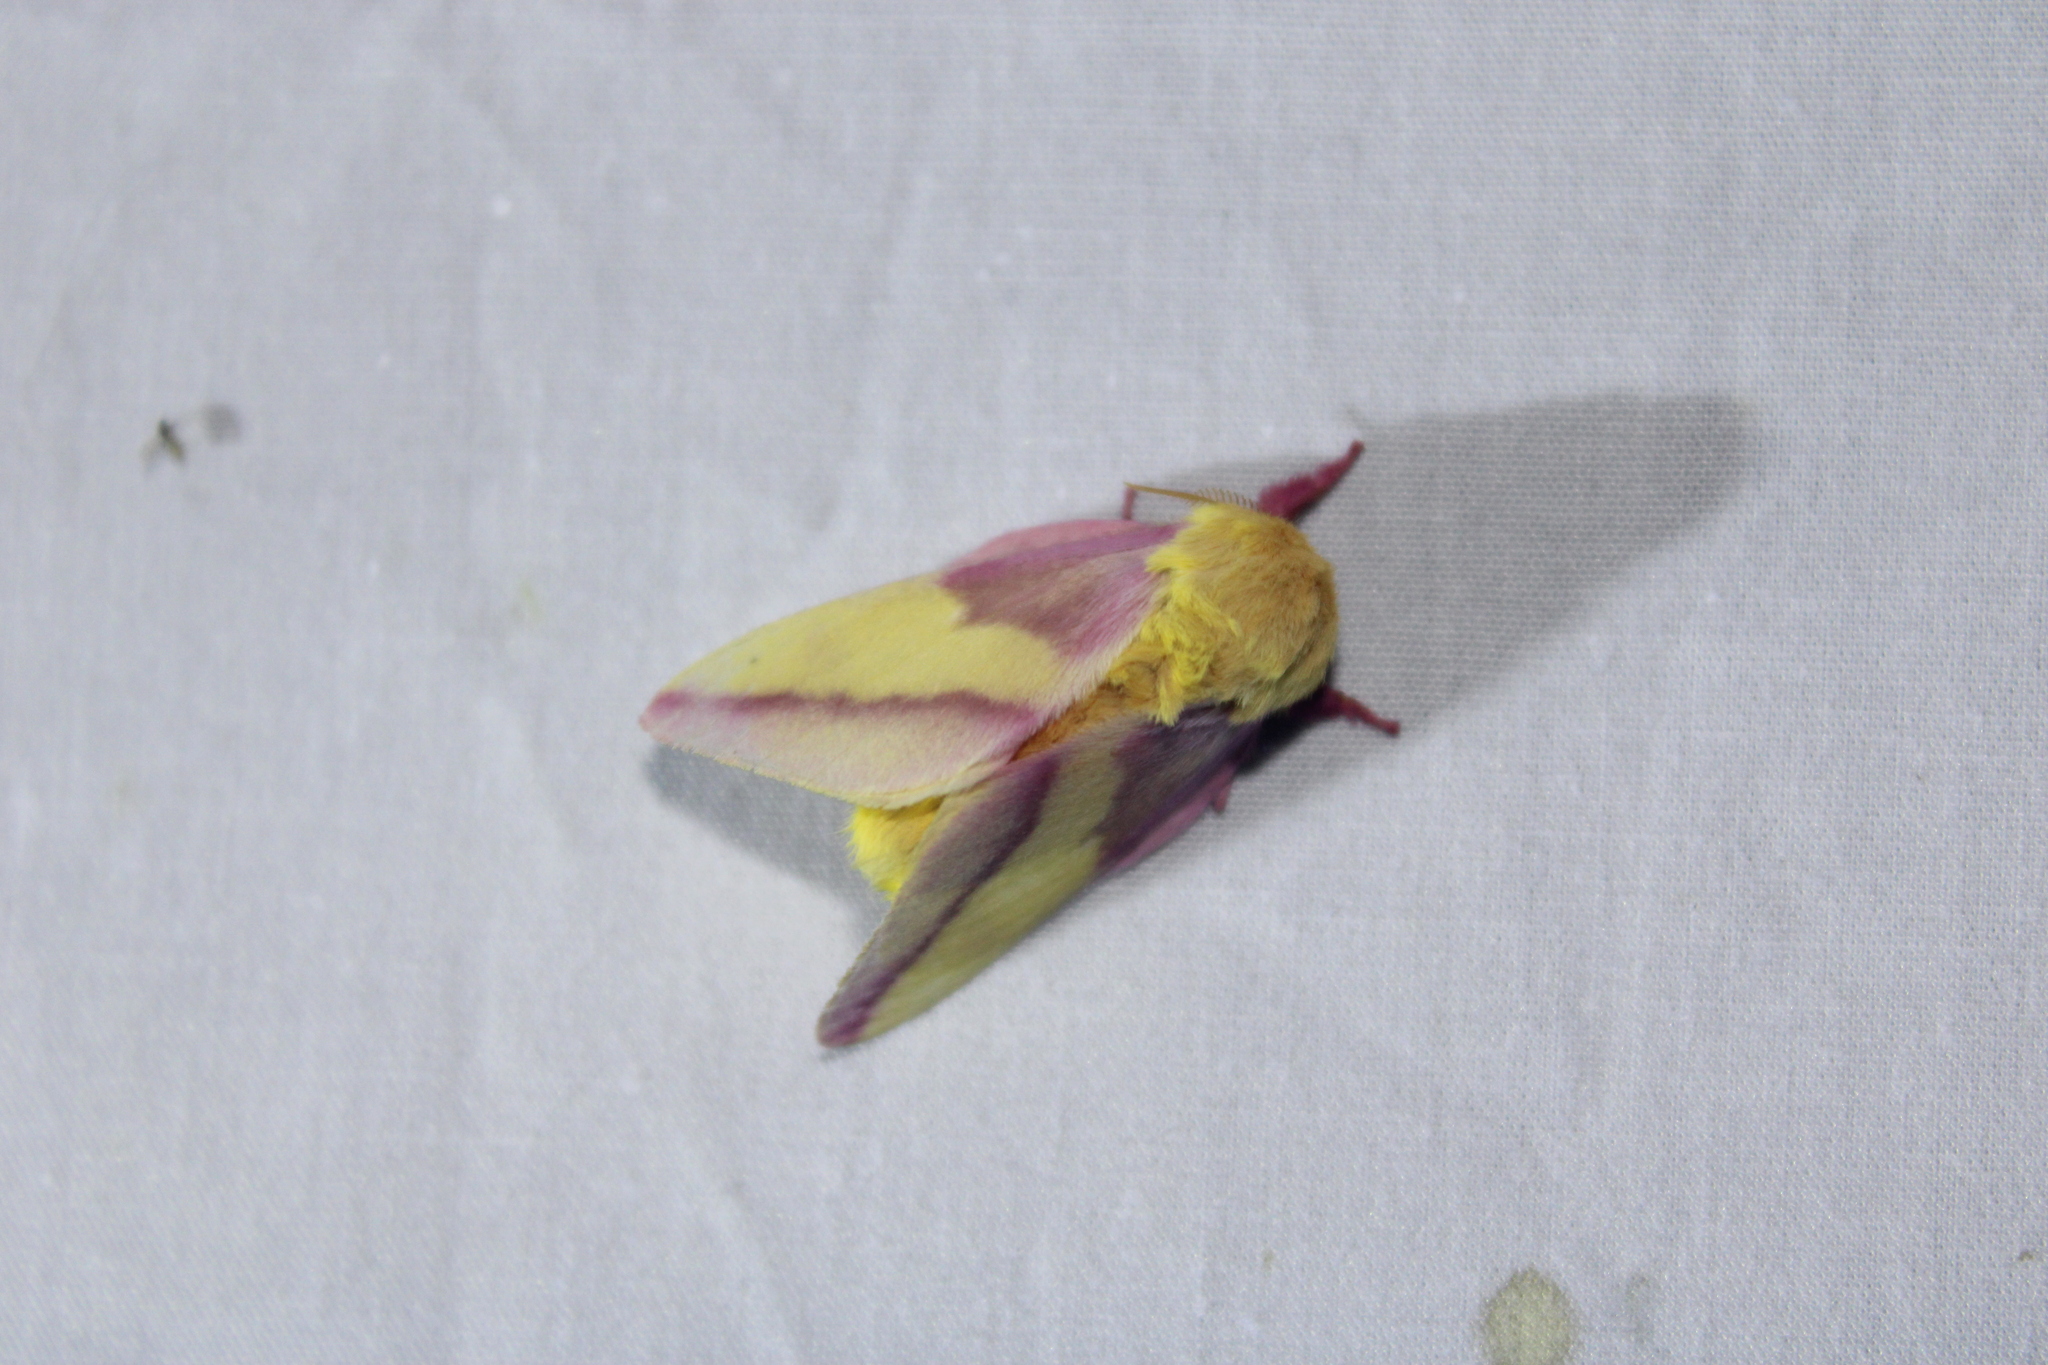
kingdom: Animalia
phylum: Arthropoda
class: Insecta
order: Lepidoptera
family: Saturniidae
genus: Dryocampa
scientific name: Dryocampa rubicunda
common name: Rosy maple moth
